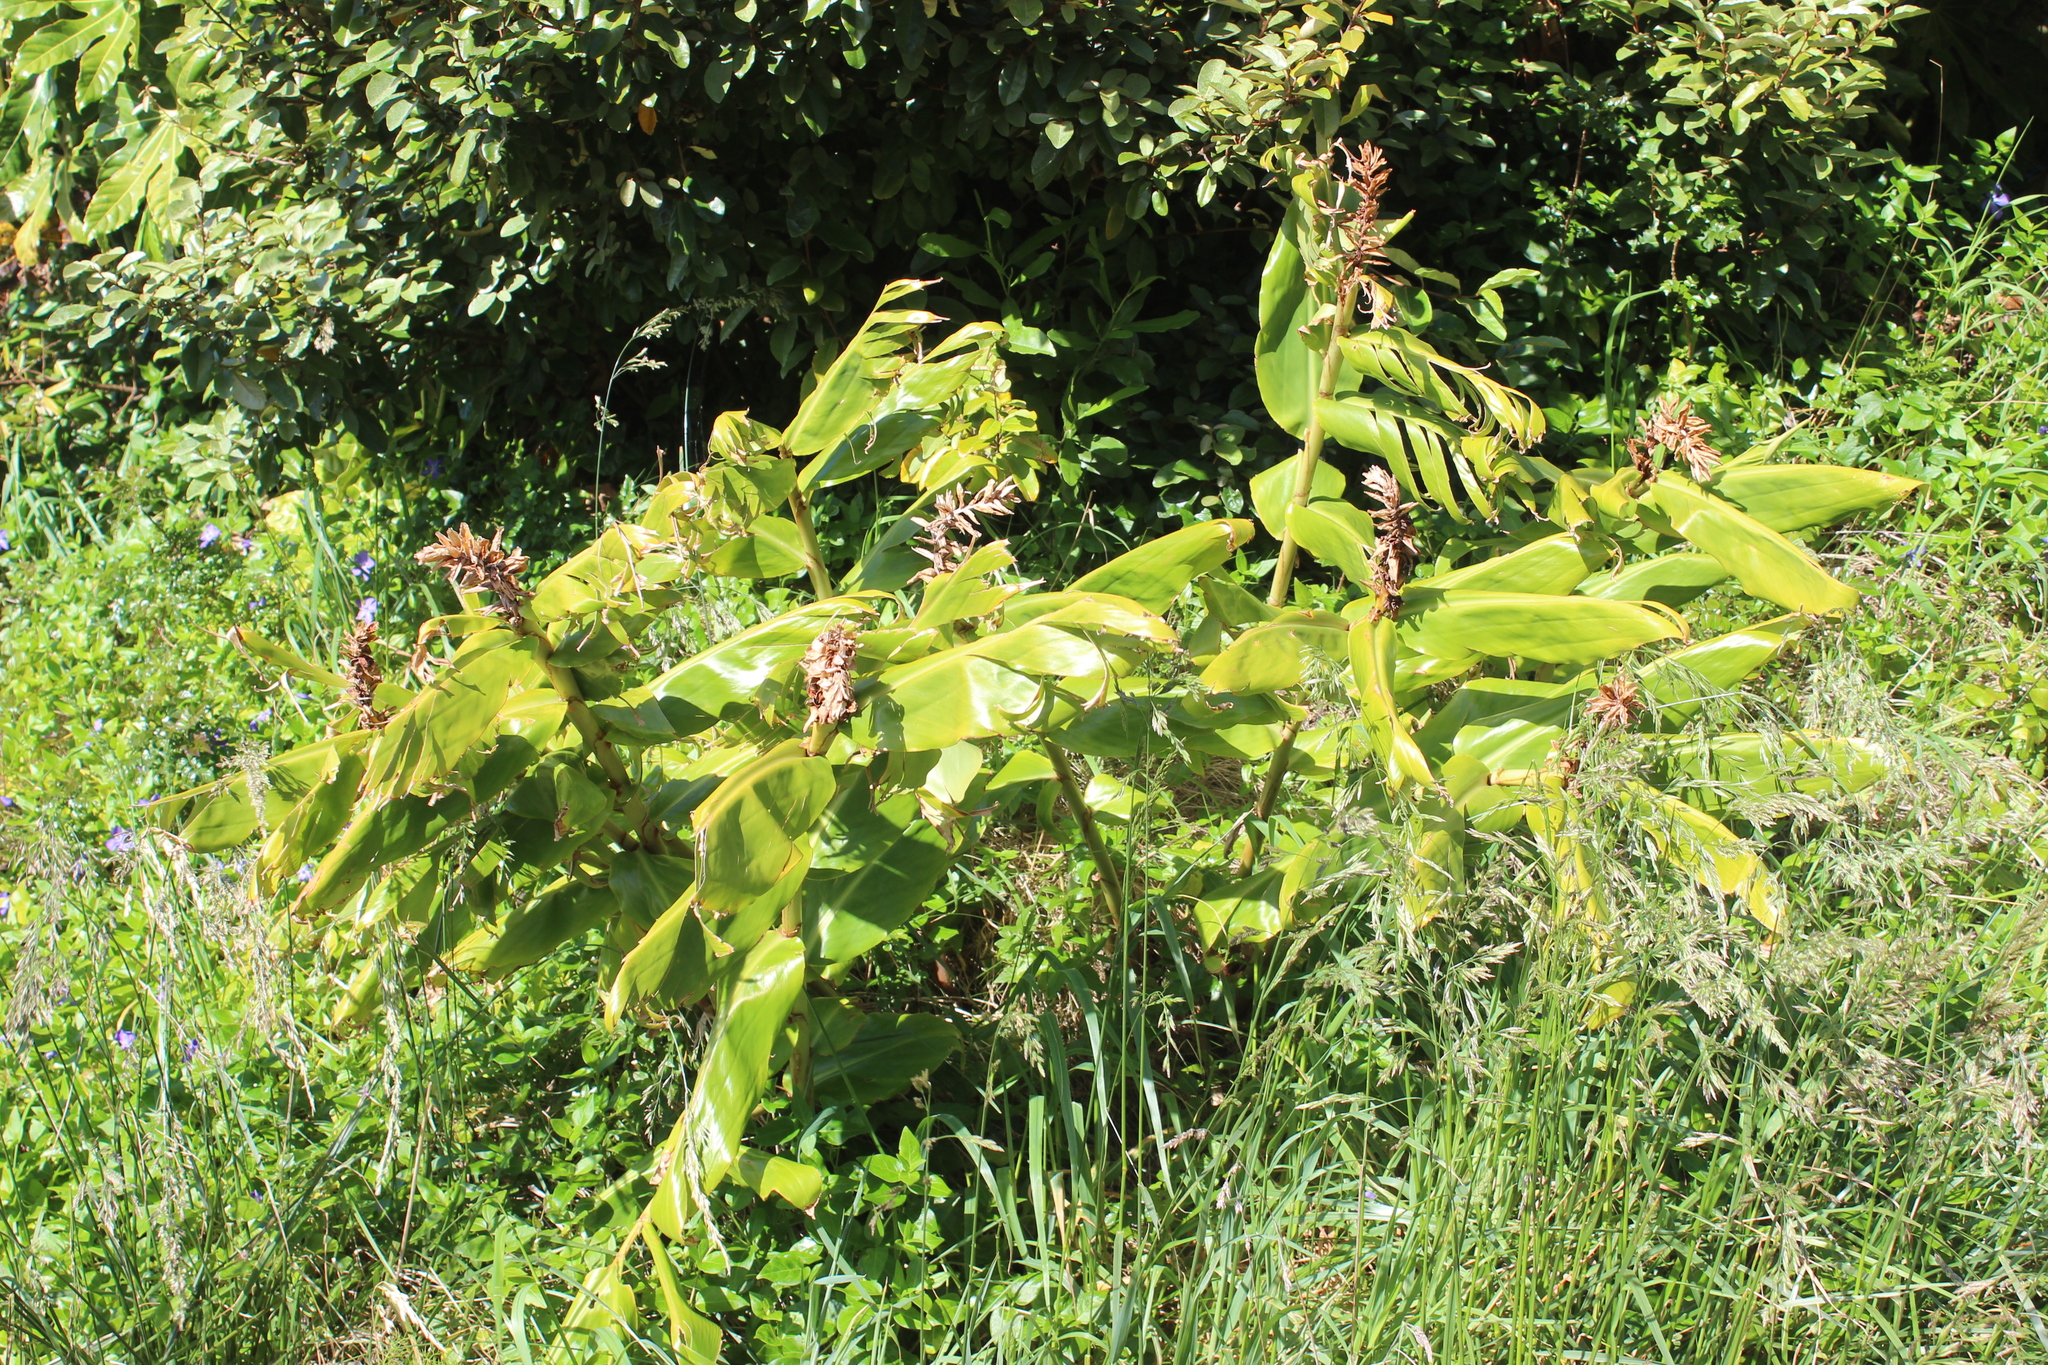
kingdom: Plantae
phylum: Tracheophyta
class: Liliopsida
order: Zingiberales
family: Zingiberaceae
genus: Hedychium
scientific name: Hedychium gardnerianum
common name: Himalayan ginger
